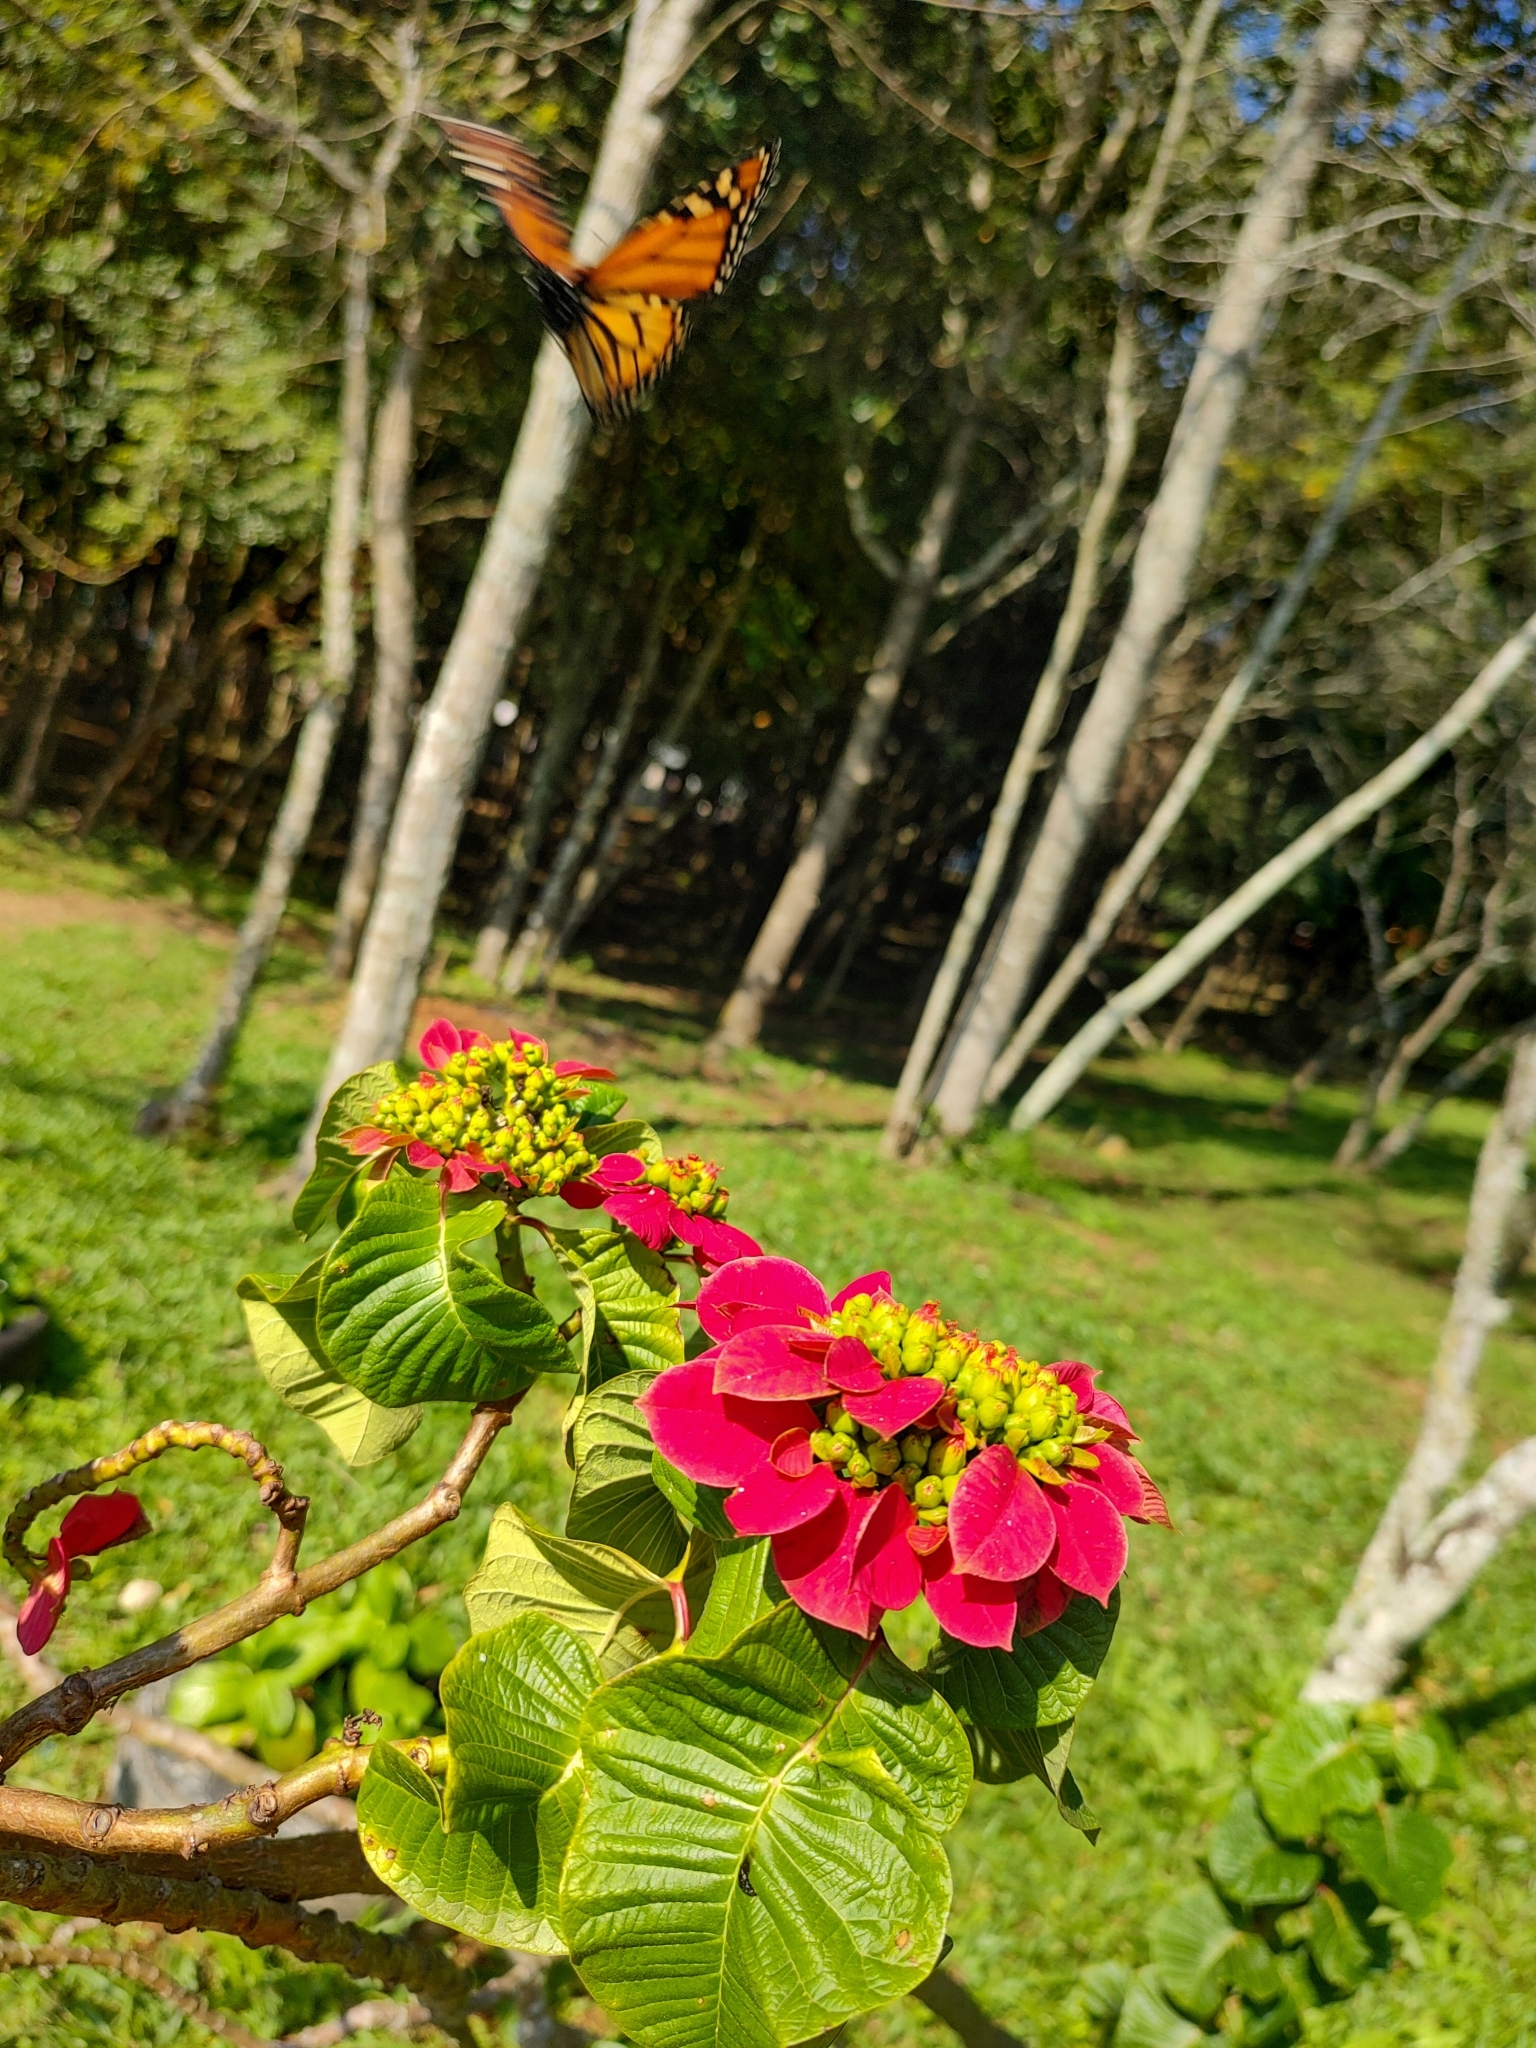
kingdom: Animalia
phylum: Arthropoda
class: Insecta
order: Lepidoptera
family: Nymphalidae
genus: Danaus
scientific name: Danaus erippus
